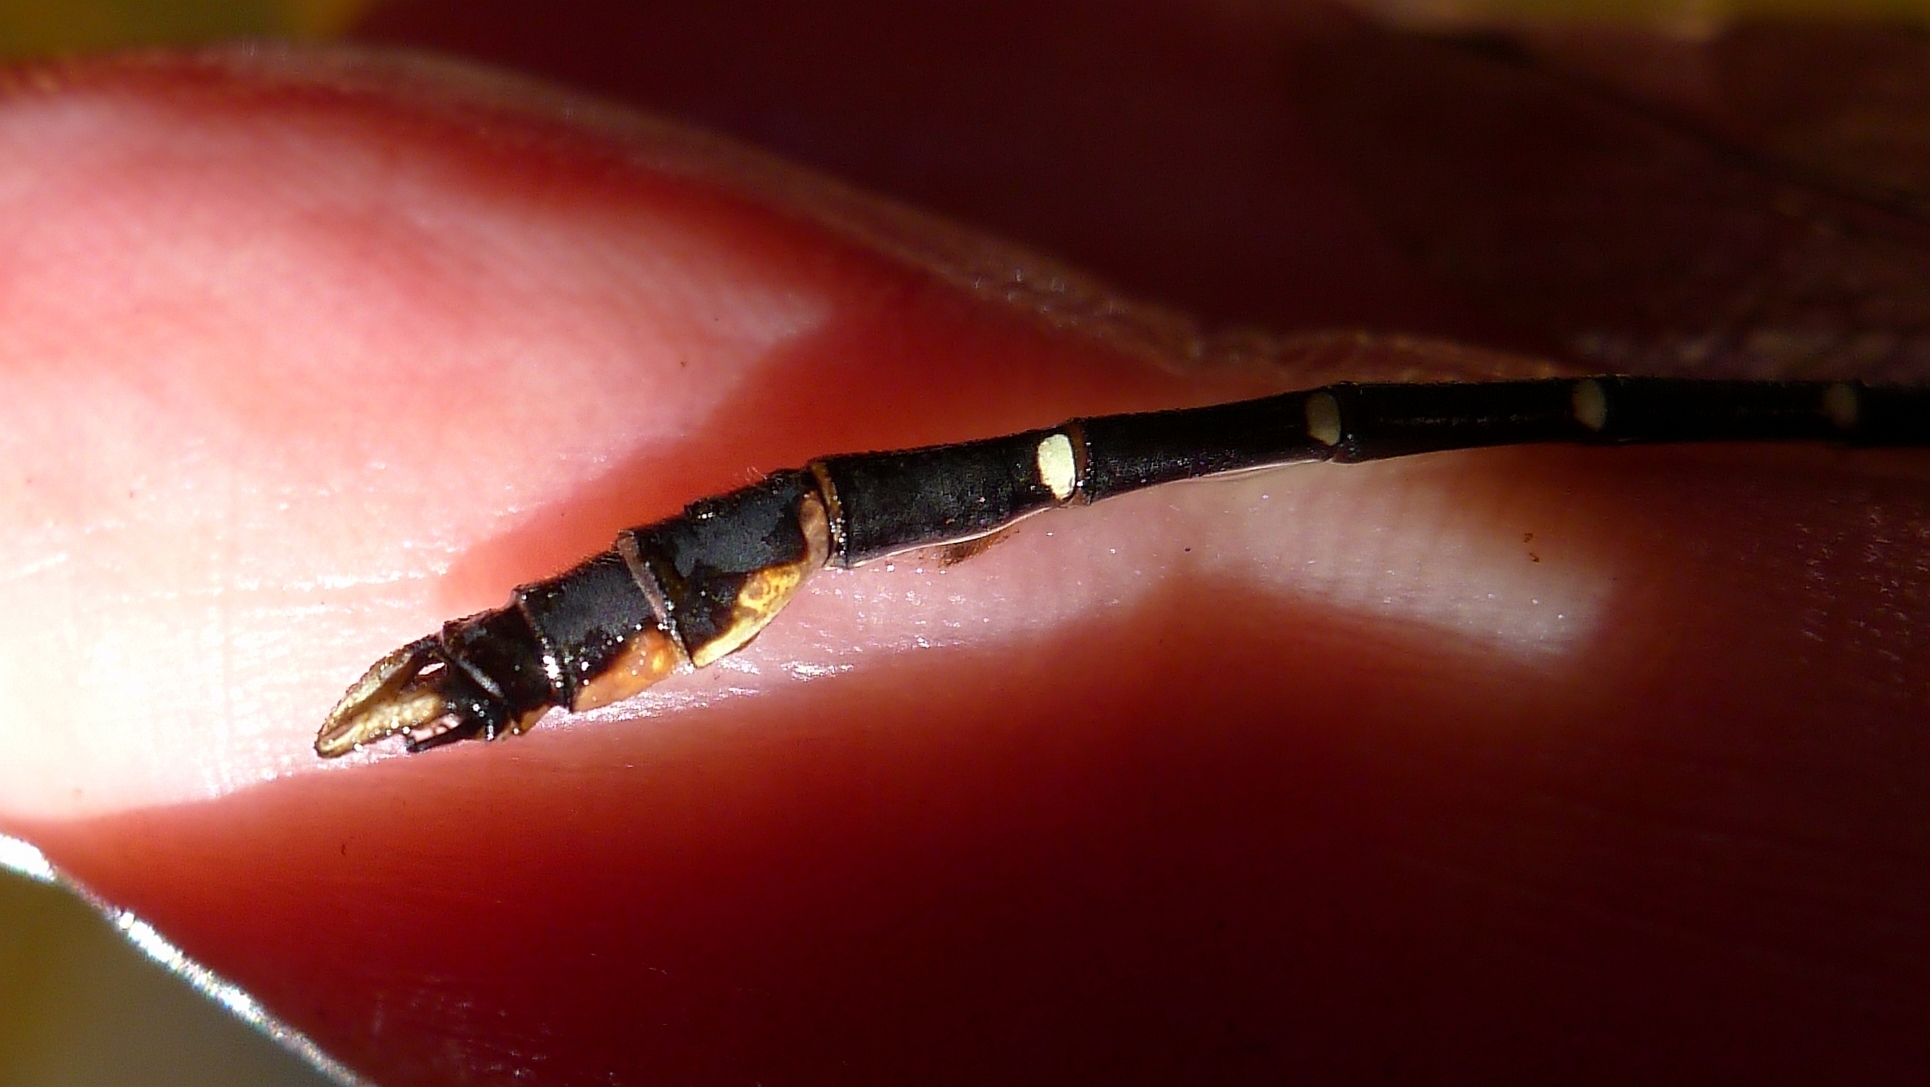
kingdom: Animalia
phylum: Arthropoda
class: Insecta
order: Odonata
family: Gomphidae
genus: Hemigomphus
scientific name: Hemigomphus gouldii
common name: Southern vicetail
